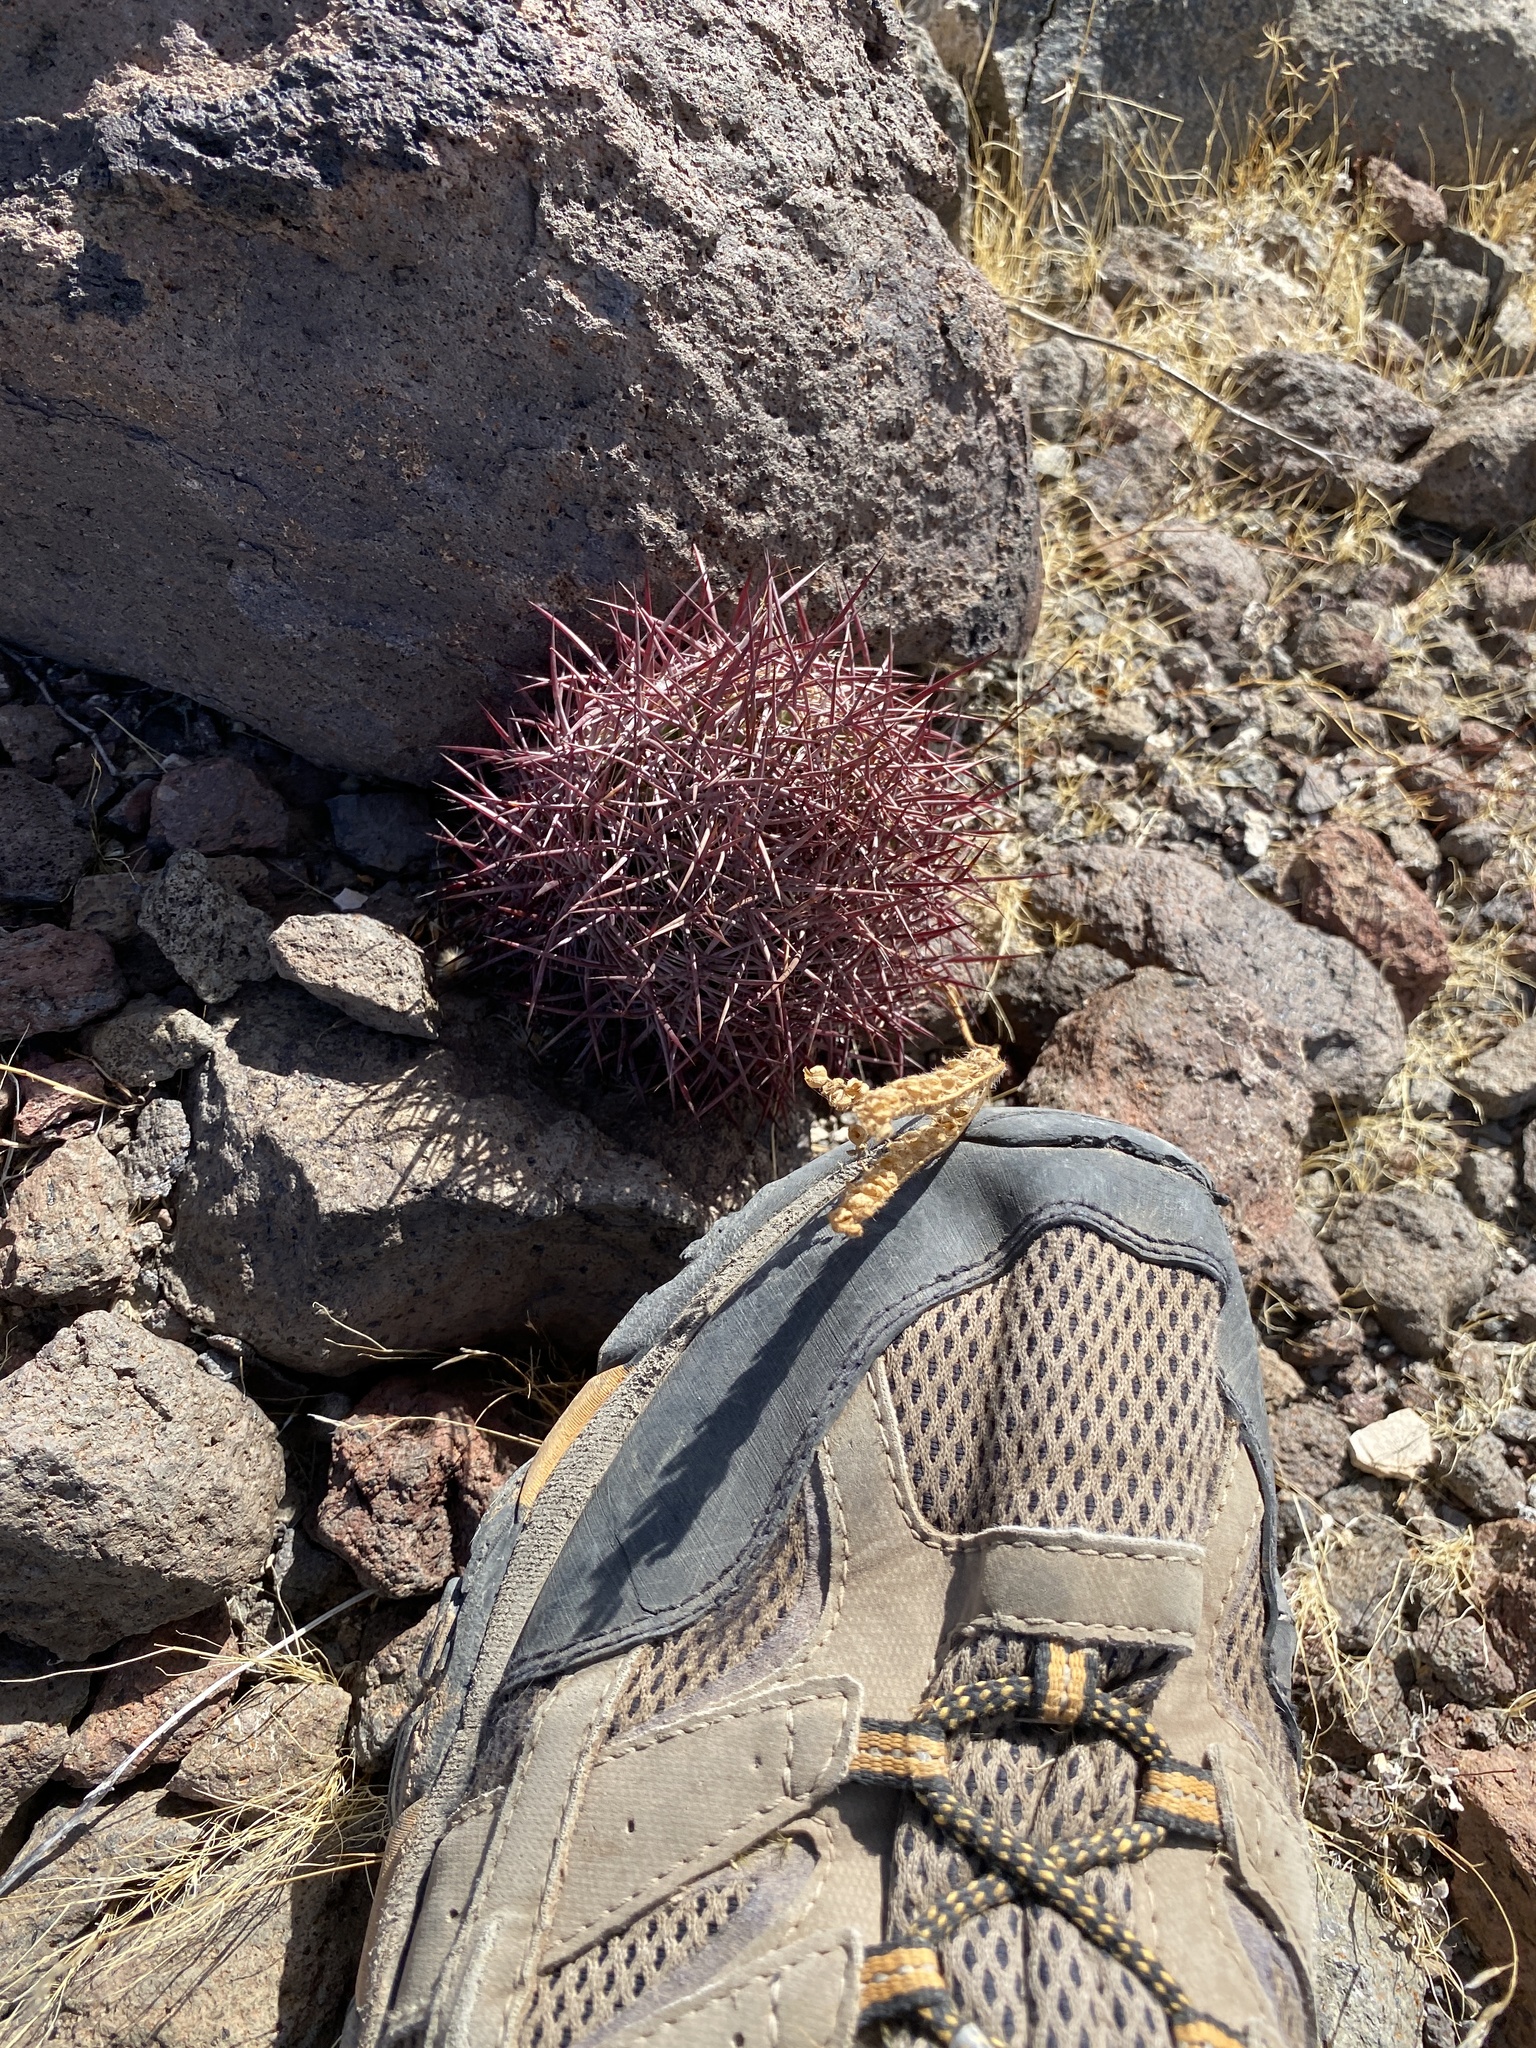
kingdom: Plantae
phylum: Tracheophyta
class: Magnoliopsida
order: Caryophyllales
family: Cactaceae
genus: Sclerocactus
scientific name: Sclerocactus johnsonii
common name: Eight-spine fishhook cactus
